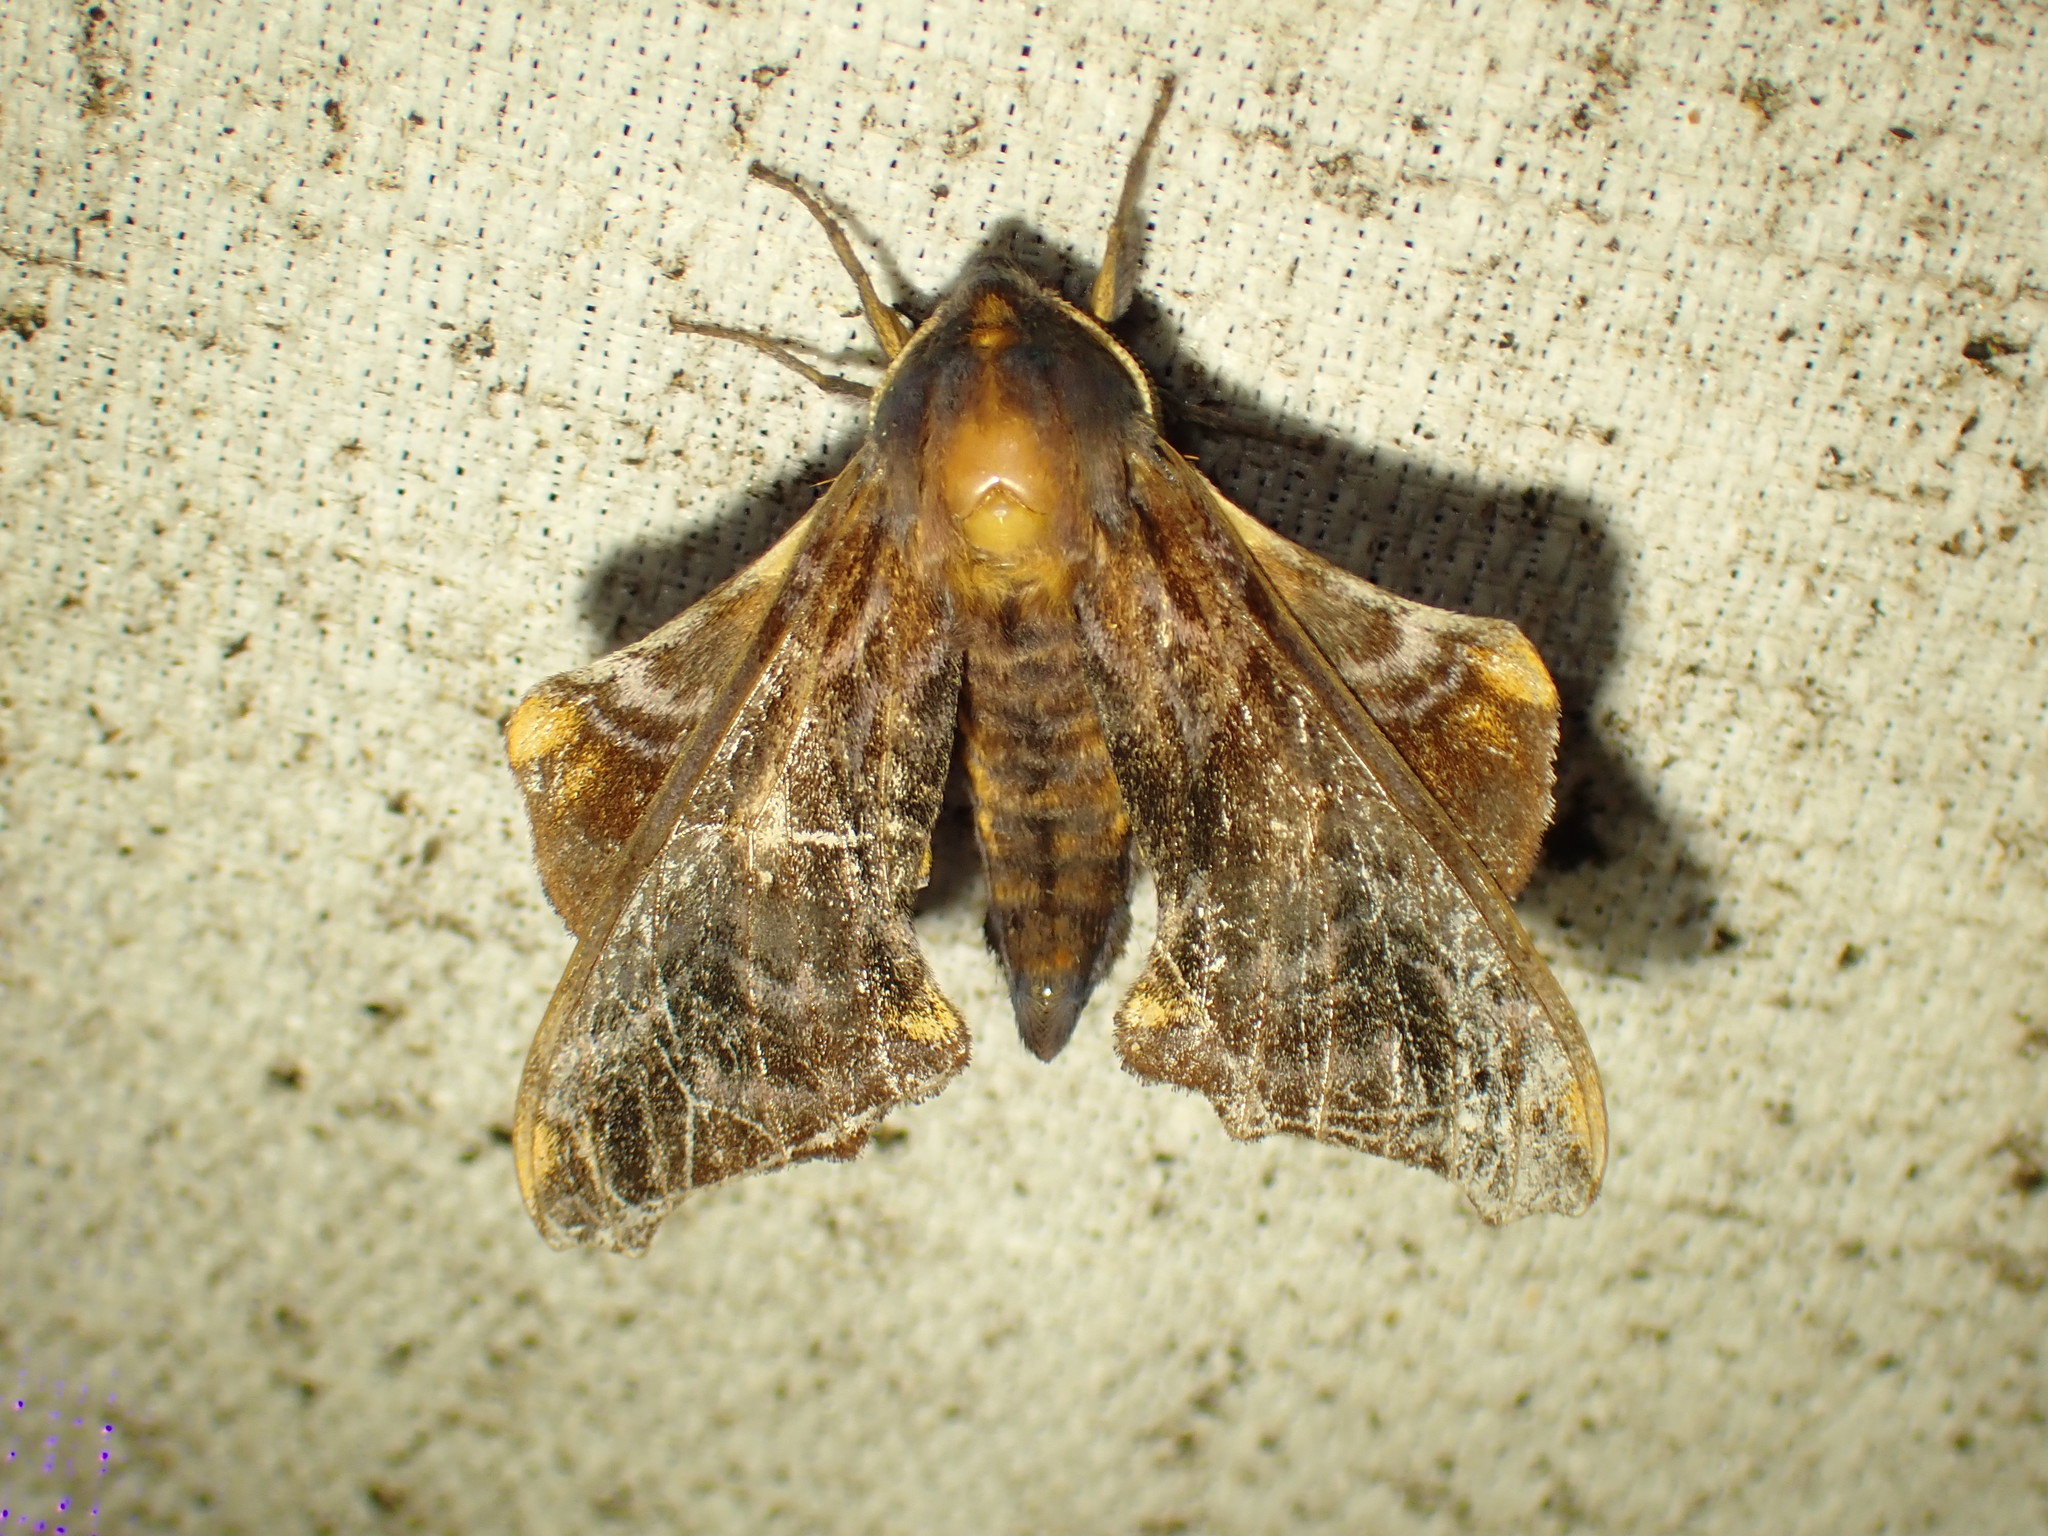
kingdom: Animalia
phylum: Arthropoda
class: Insecta
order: Lepidoptera
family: Sphingidae
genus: Paonias
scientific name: Paonias myops
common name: Small-eyed sphinx
